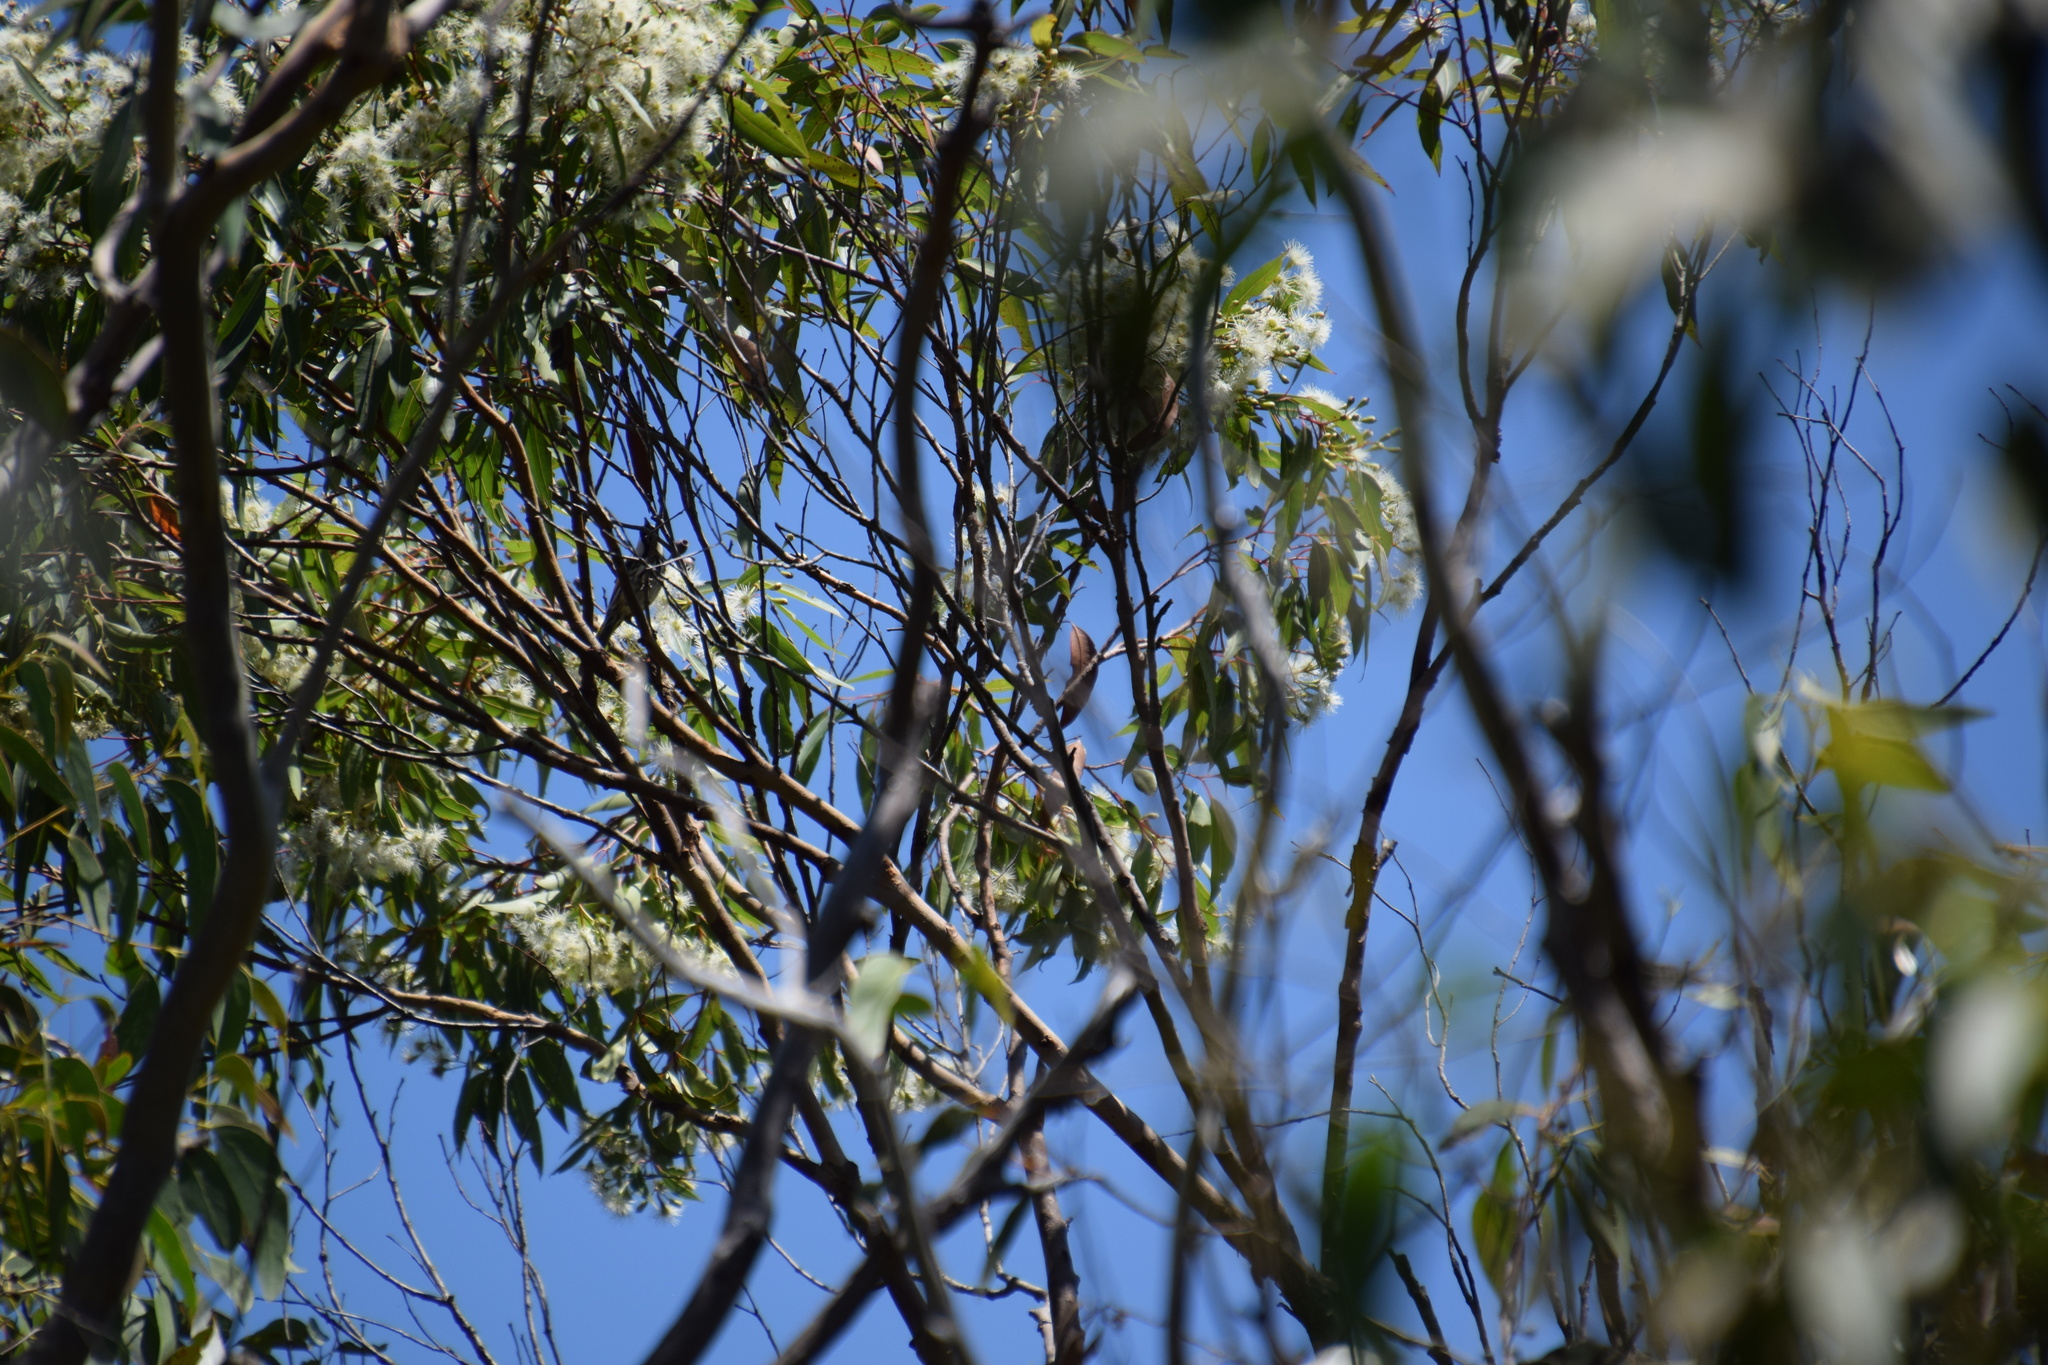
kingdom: Animalia
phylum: Chordata
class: Aves
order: Passeriformes
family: Meliphagidae
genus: Phylidonyris
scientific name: Phylidonyris niger
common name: White-cheeked honeyeater
